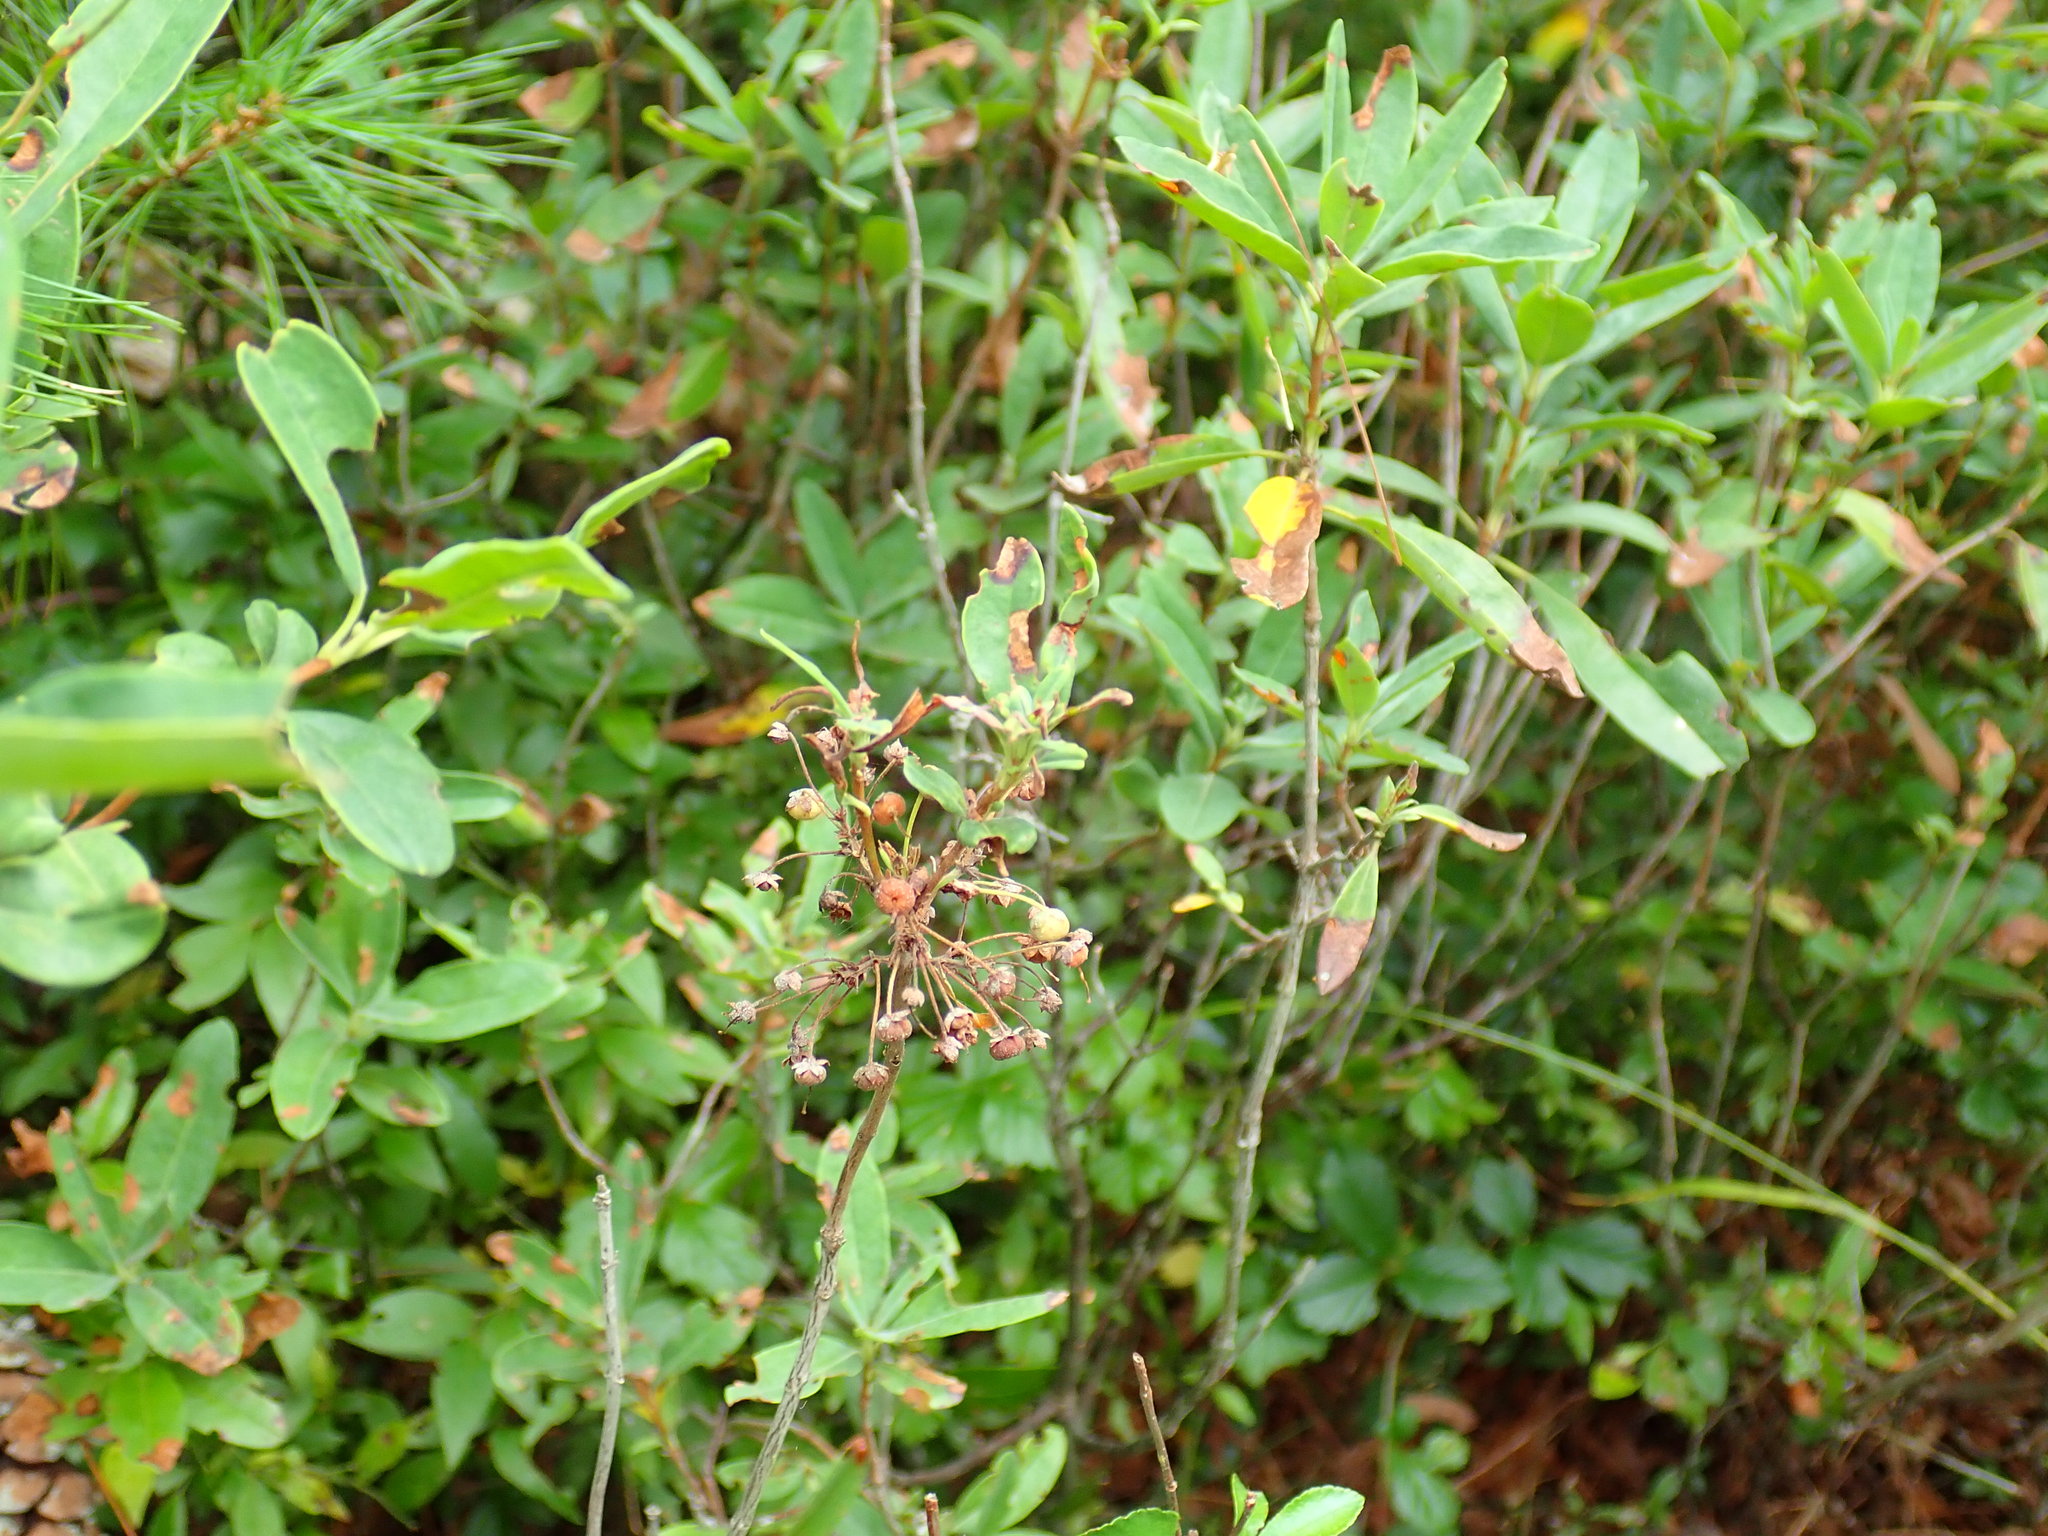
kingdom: Plantae
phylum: Tracheophyta
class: Magnoliopsida
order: Ericales
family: Ericaceae
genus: Kalmia
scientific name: Kalmia angustifolia
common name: Sheep-laurel
